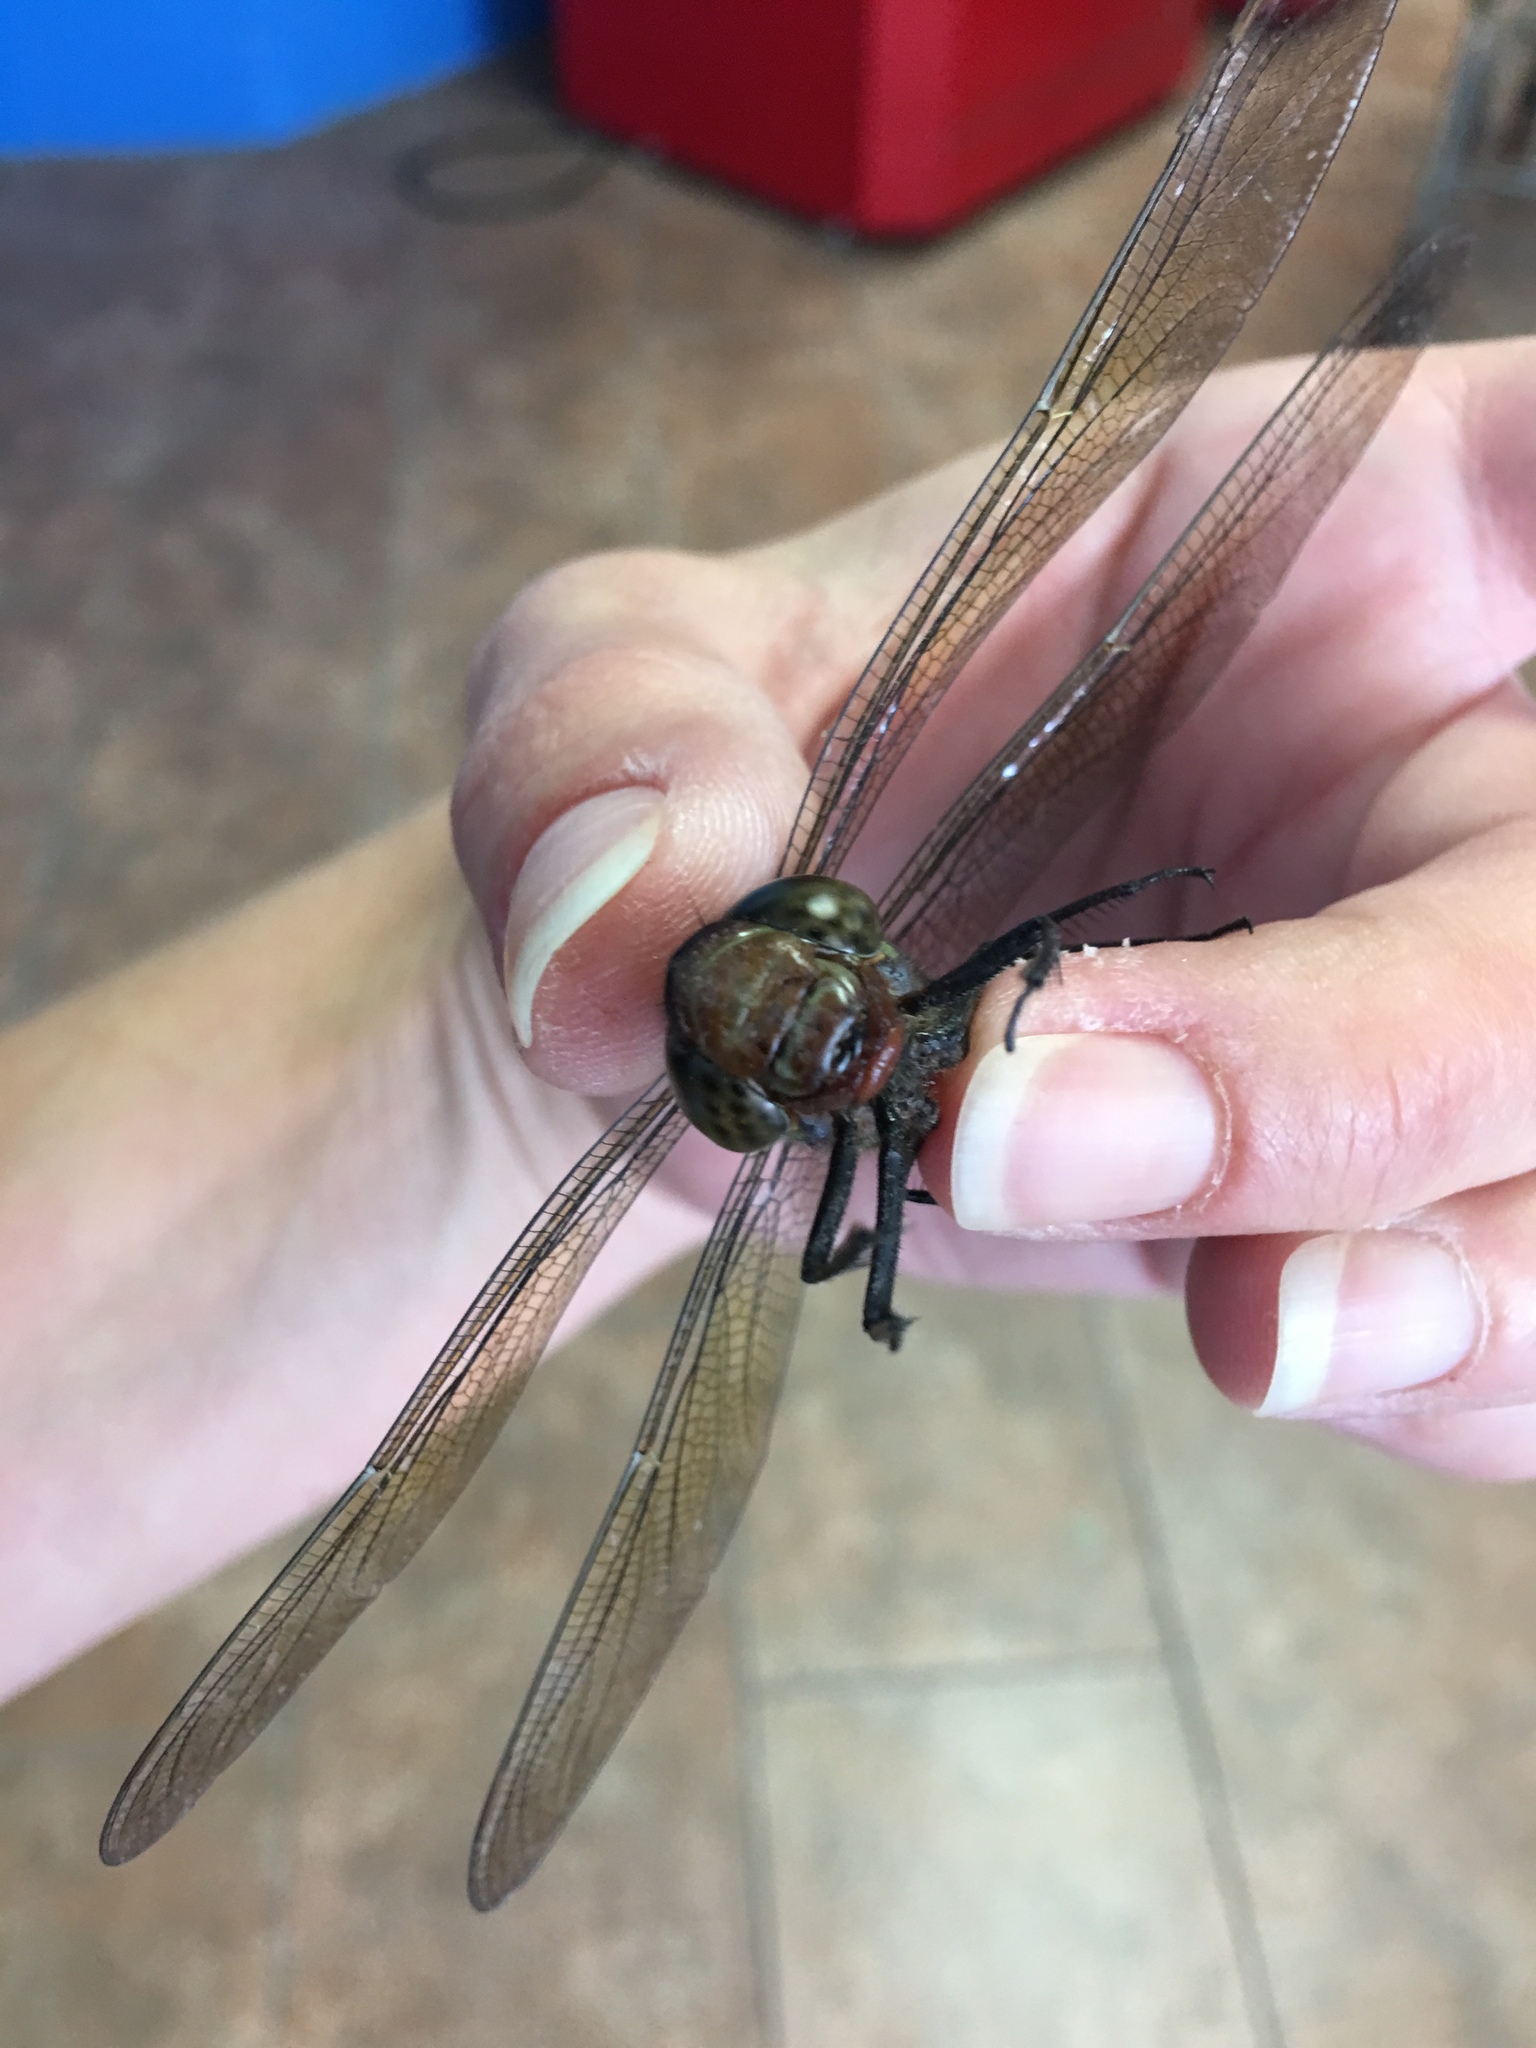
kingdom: Animalia
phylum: Arthropoda
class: Insecta
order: Odonata
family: Aeshnidae
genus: Epiaeschna
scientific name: Epiaeschna heros
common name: Swamp darner
